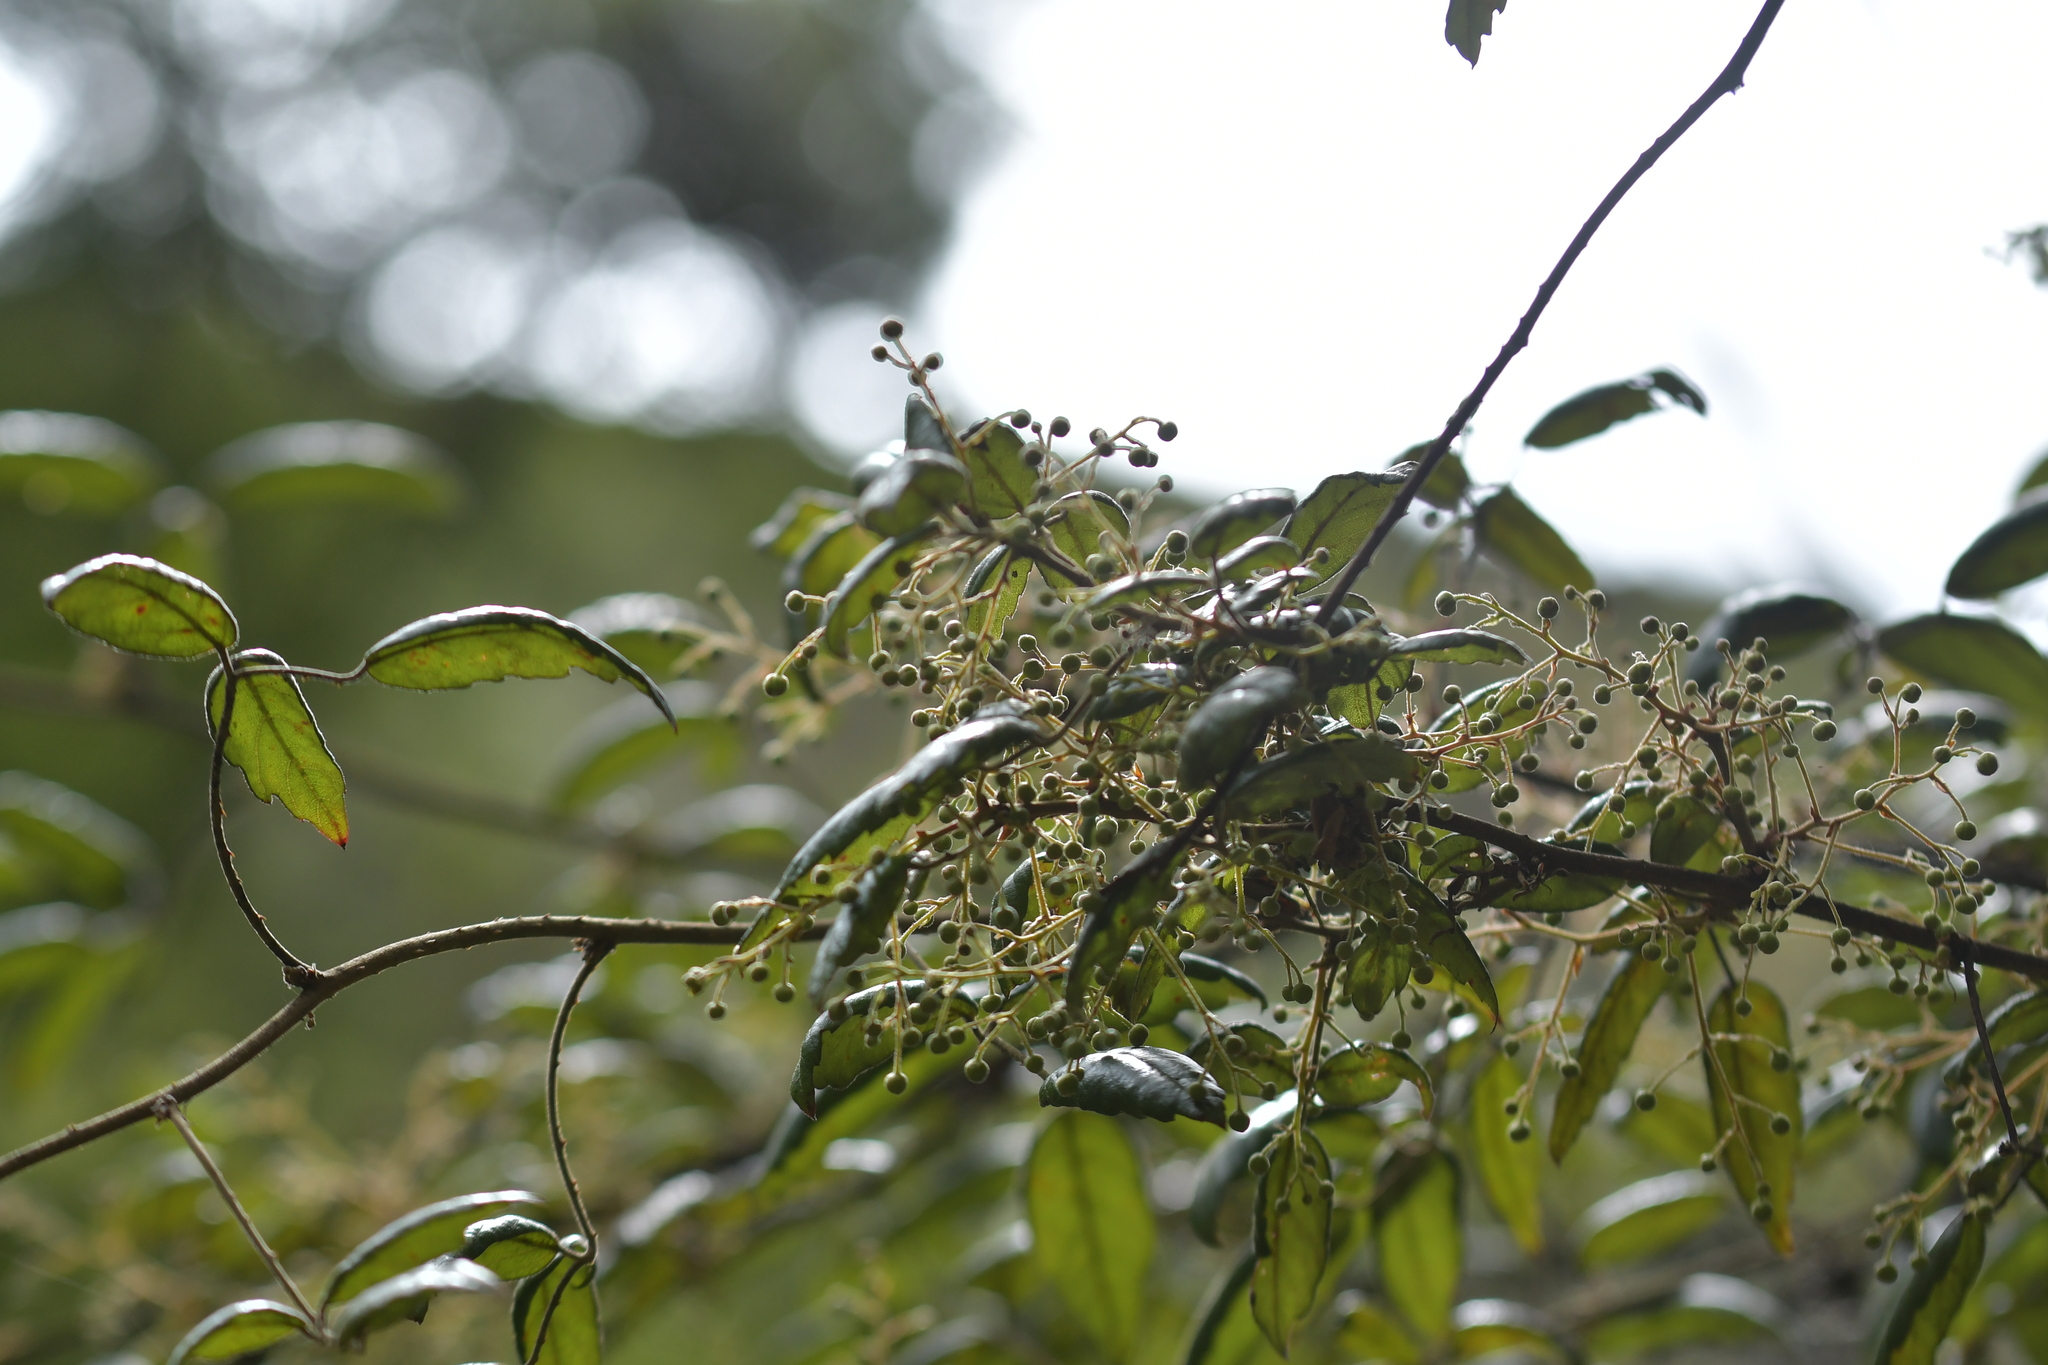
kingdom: Plantae
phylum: Tracheophyta
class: Magnoliopsida
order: Rosales
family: Rosaceae
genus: Rubus
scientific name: Rubus cissoides
